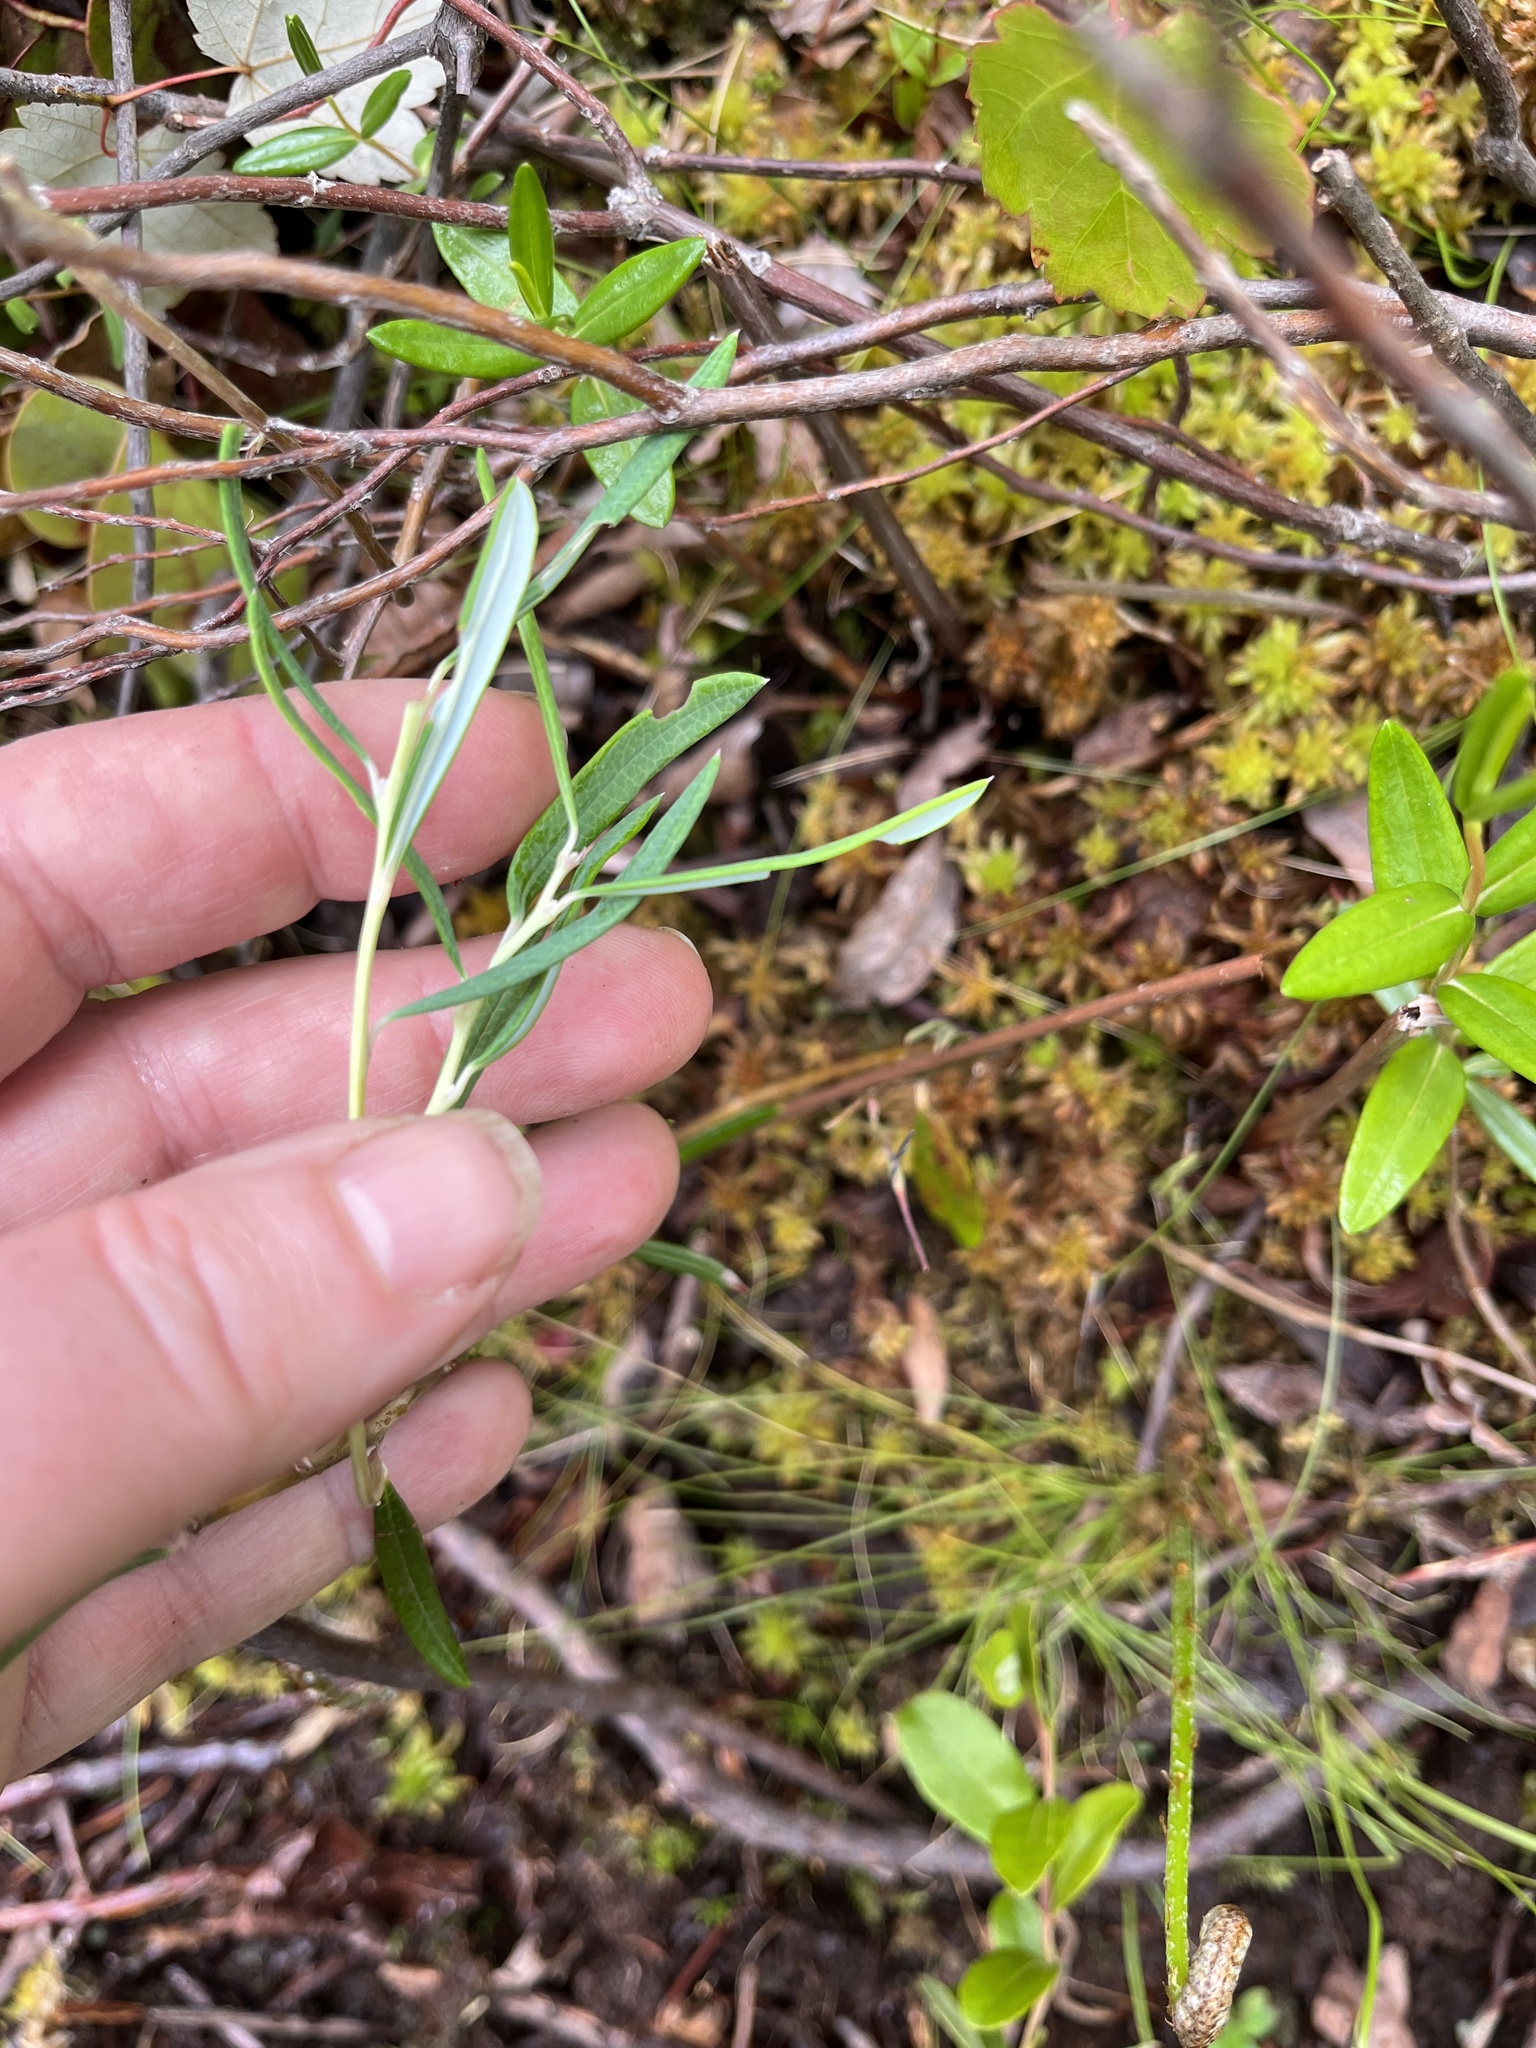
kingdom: Plantae
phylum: Tracheophyta
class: Magnoliopsida
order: Ericales
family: Ericaceae
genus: Andromeda
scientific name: Andromeda polifolia
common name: Bog-rosemary
